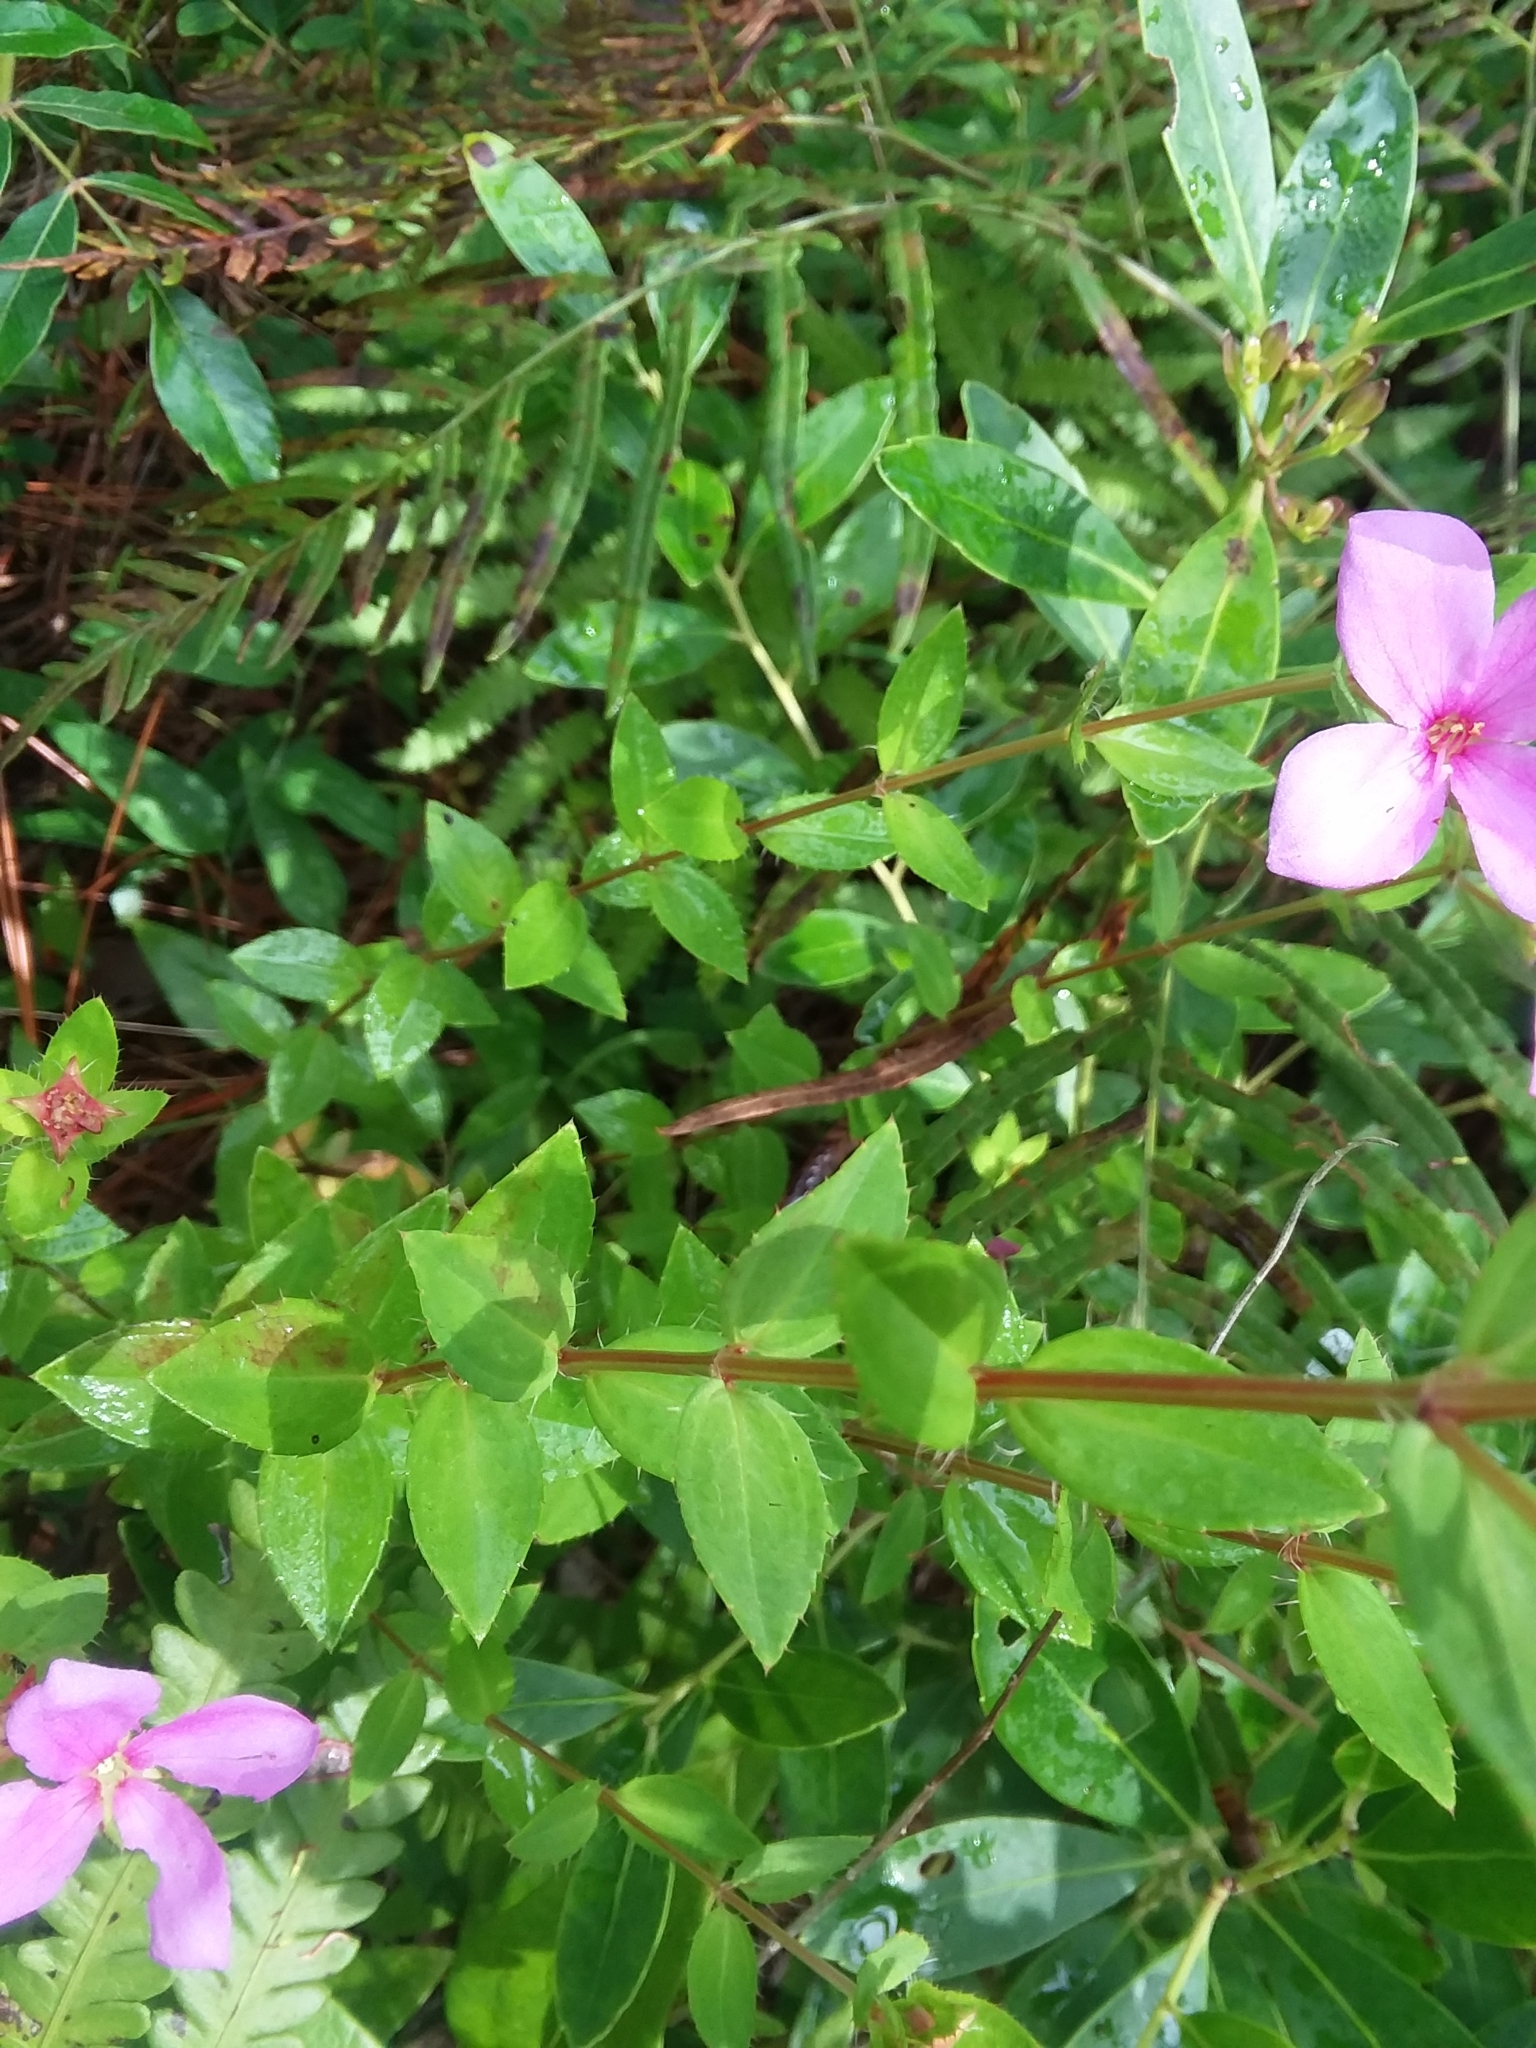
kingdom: Plantae
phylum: Tracheophyta
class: Magnoliopsida
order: Myrtales
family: Melastomataceae
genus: Rhexia
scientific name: Rhexia petiolata
